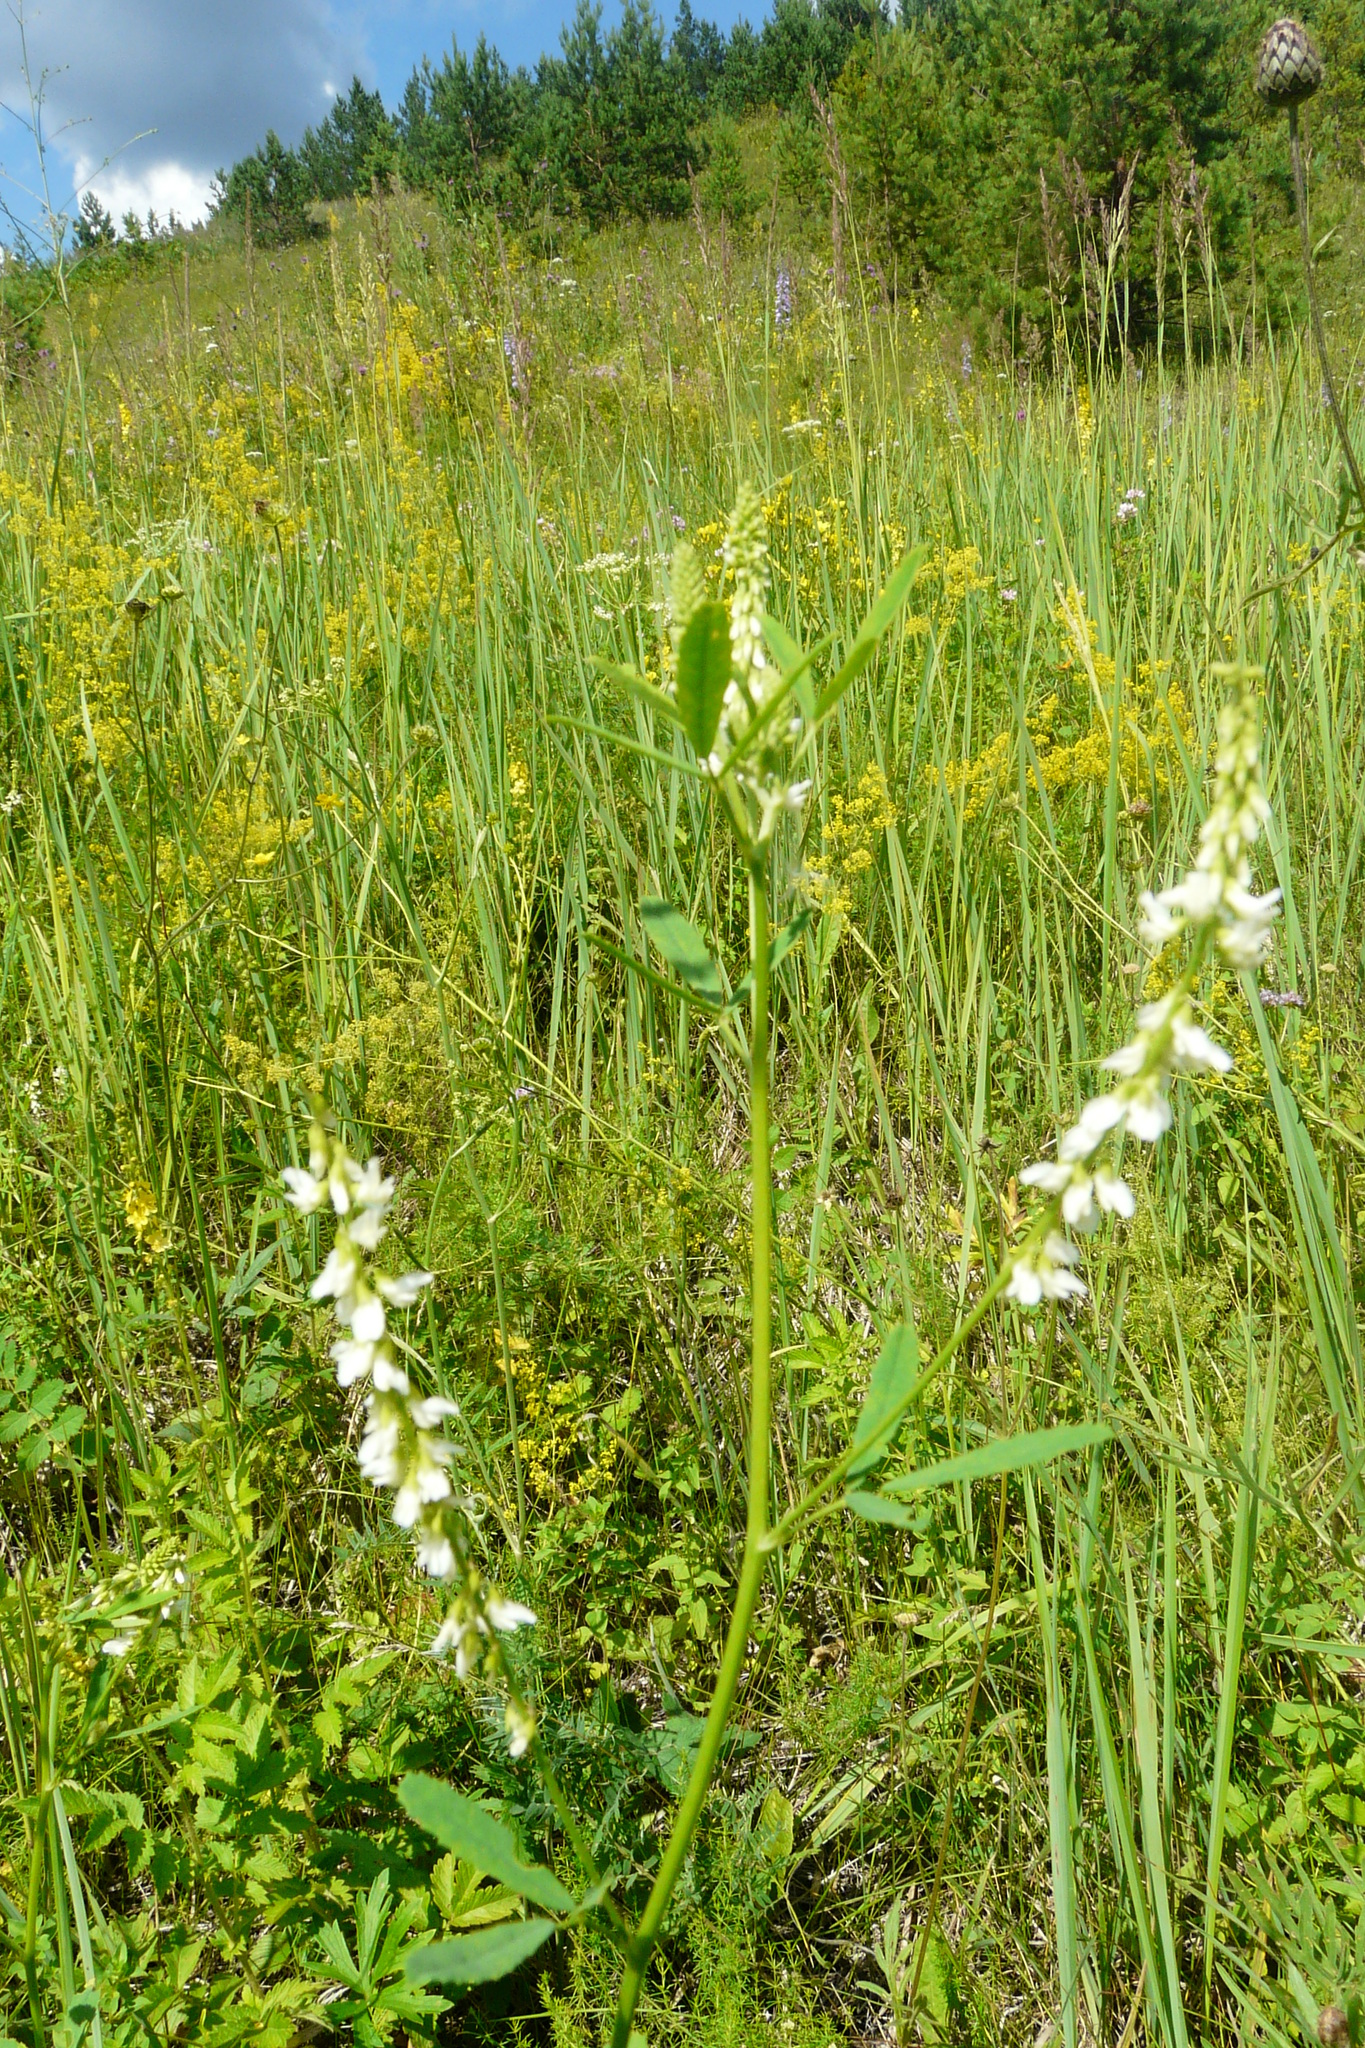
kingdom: Plantae
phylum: Tracheophyta
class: Magnoliopsida
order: Fabales
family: Fabaceae
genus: Melilotus
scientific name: Melilotus albus
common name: White melilot
